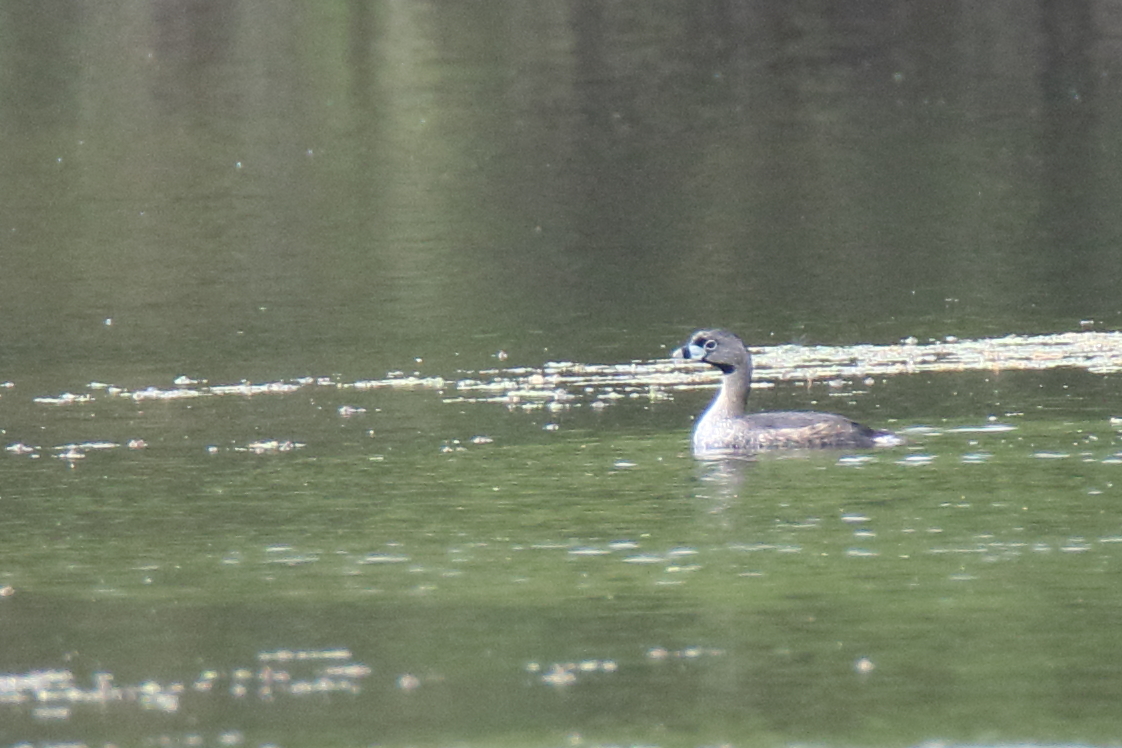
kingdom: Animalia
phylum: Chordata
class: Aves
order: Podicipediformes
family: Podicipedidae
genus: Podilymbus
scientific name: Podilymbus podiceps
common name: Pied-billed grebe
